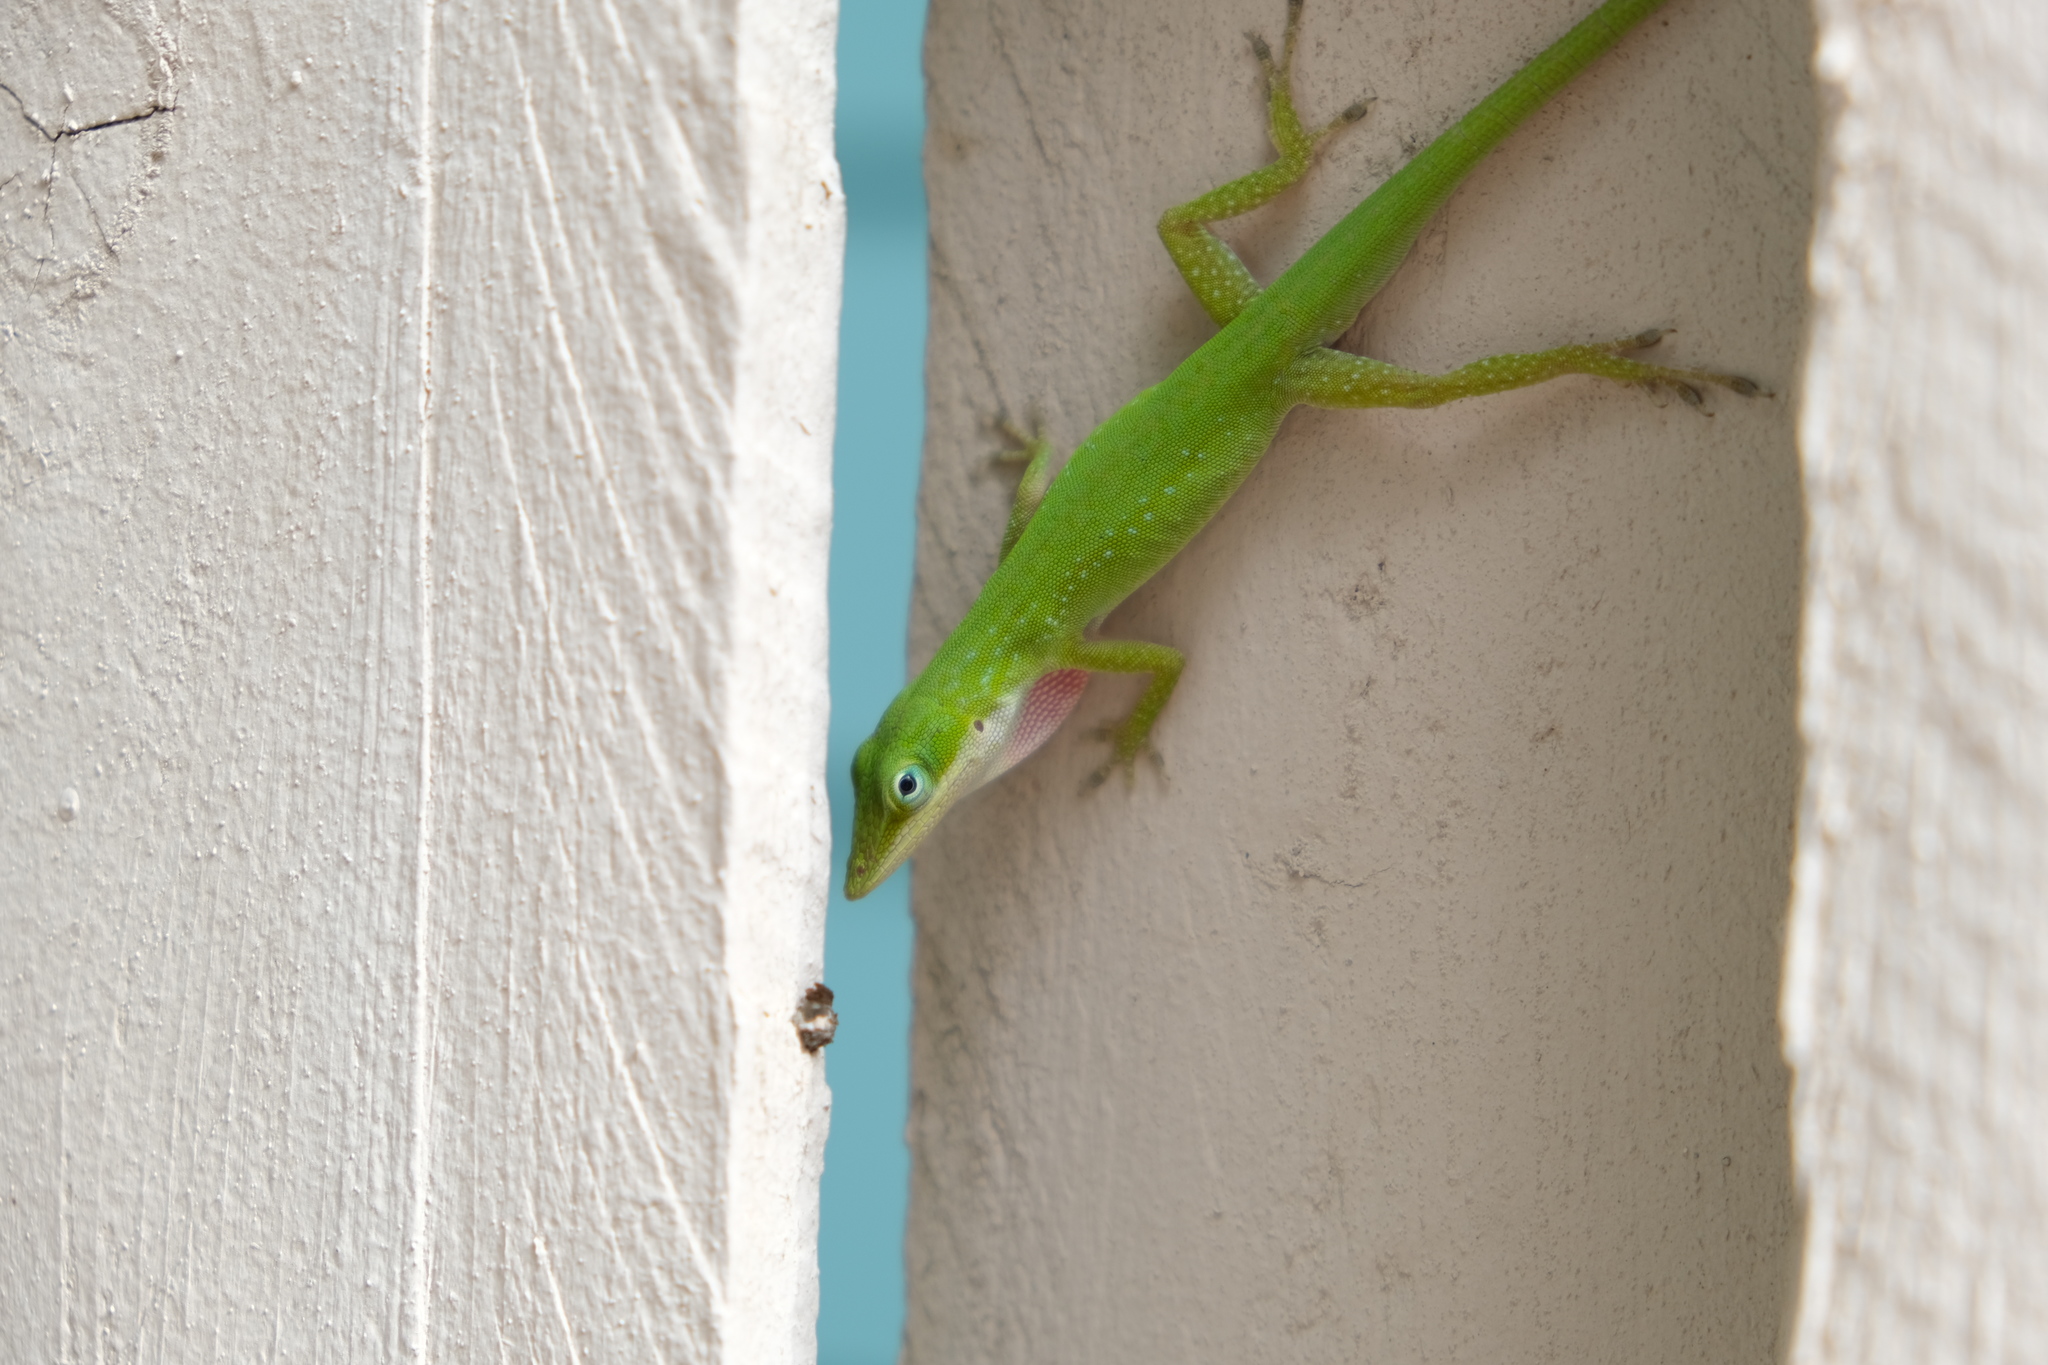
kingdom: Animalia
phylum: Chordata
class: Squamata
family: Dactyloidae
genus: Anolis
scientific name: Anolis carolinensis
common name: Green anole
